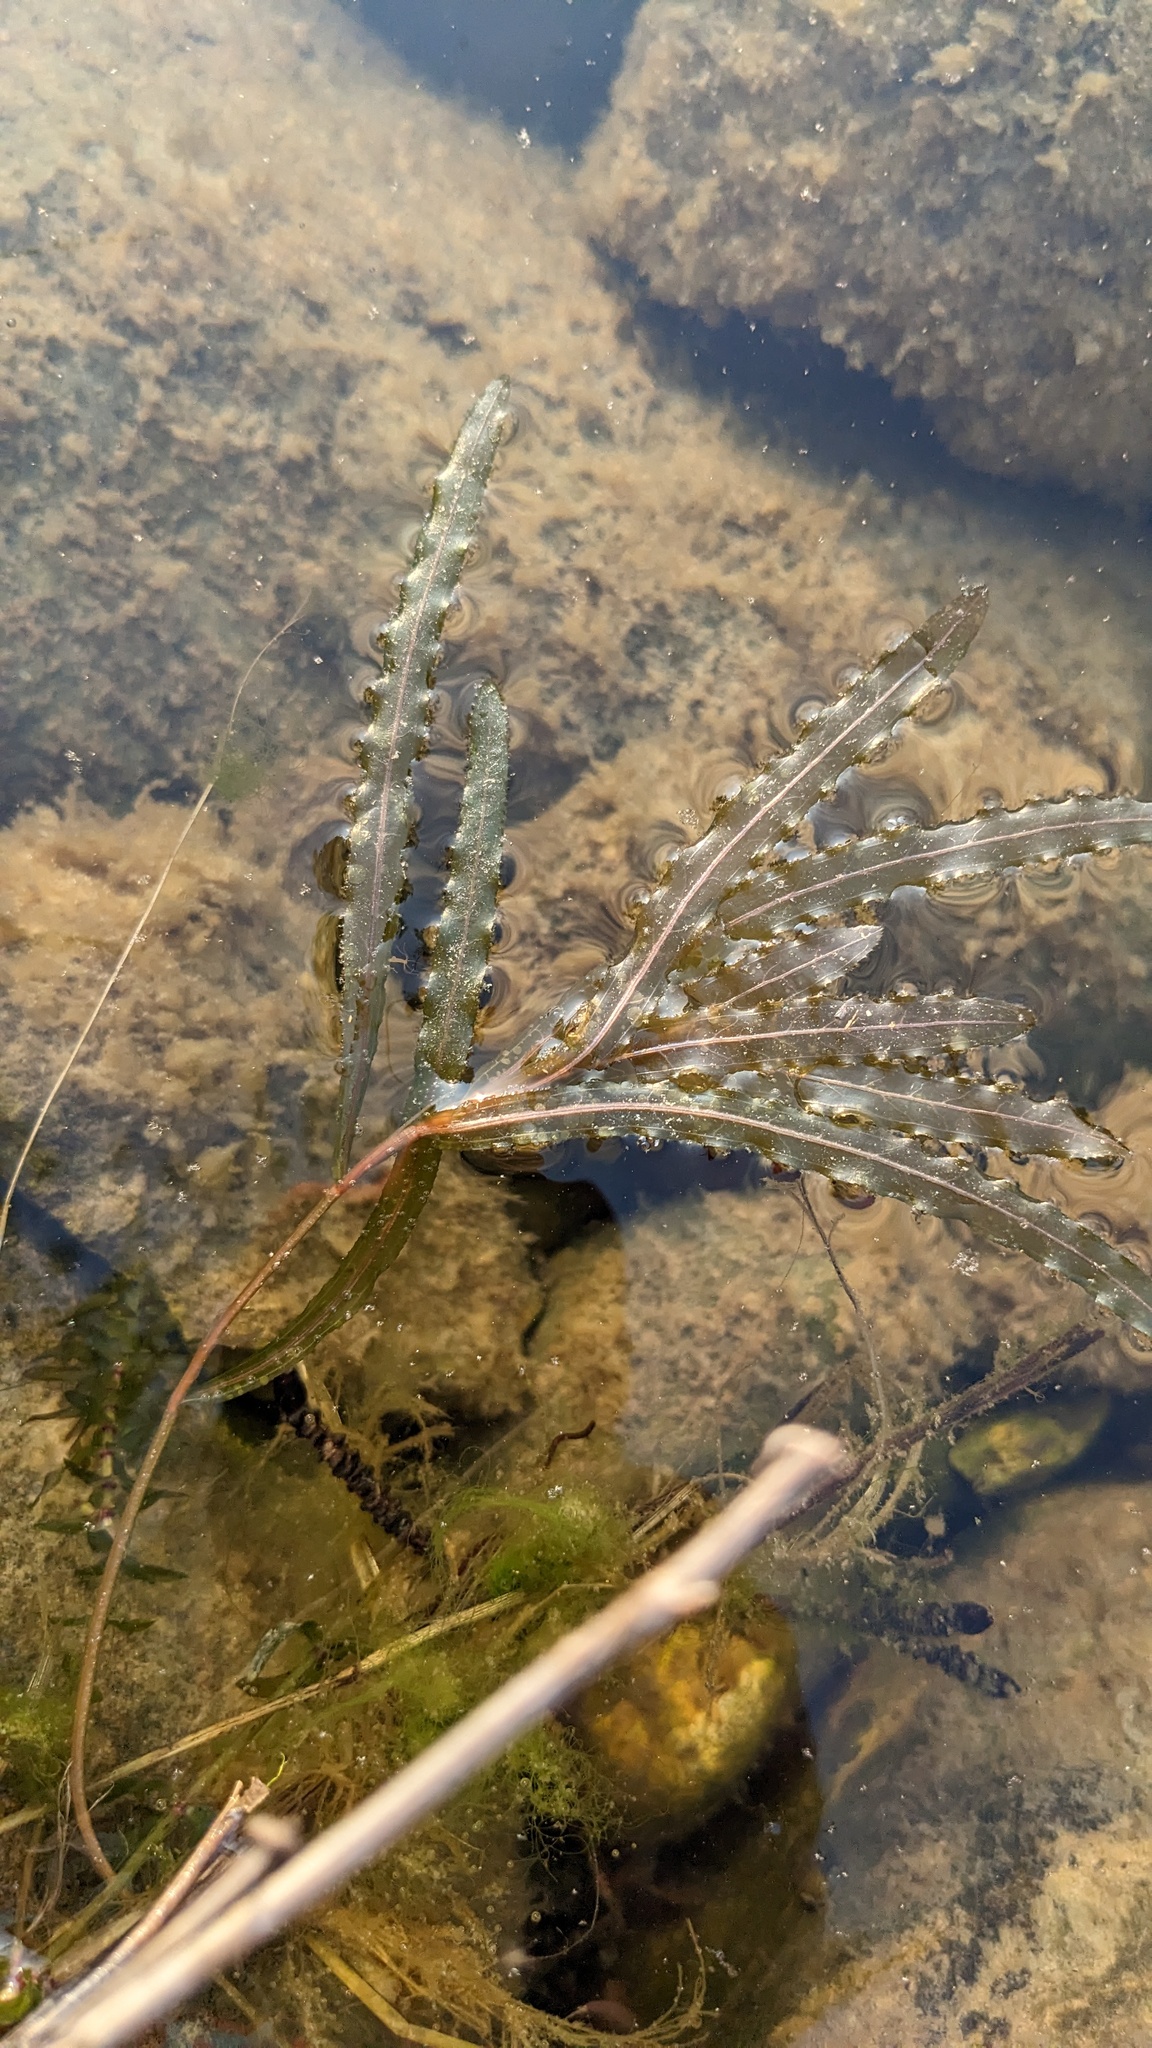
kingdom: Plantae
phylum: Tracheophyta
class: Liliopsida
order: Alismatales
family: Potamogetonaceae
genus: Potamogeton
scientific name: Potamogeton crispus
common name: Curled pondweed
